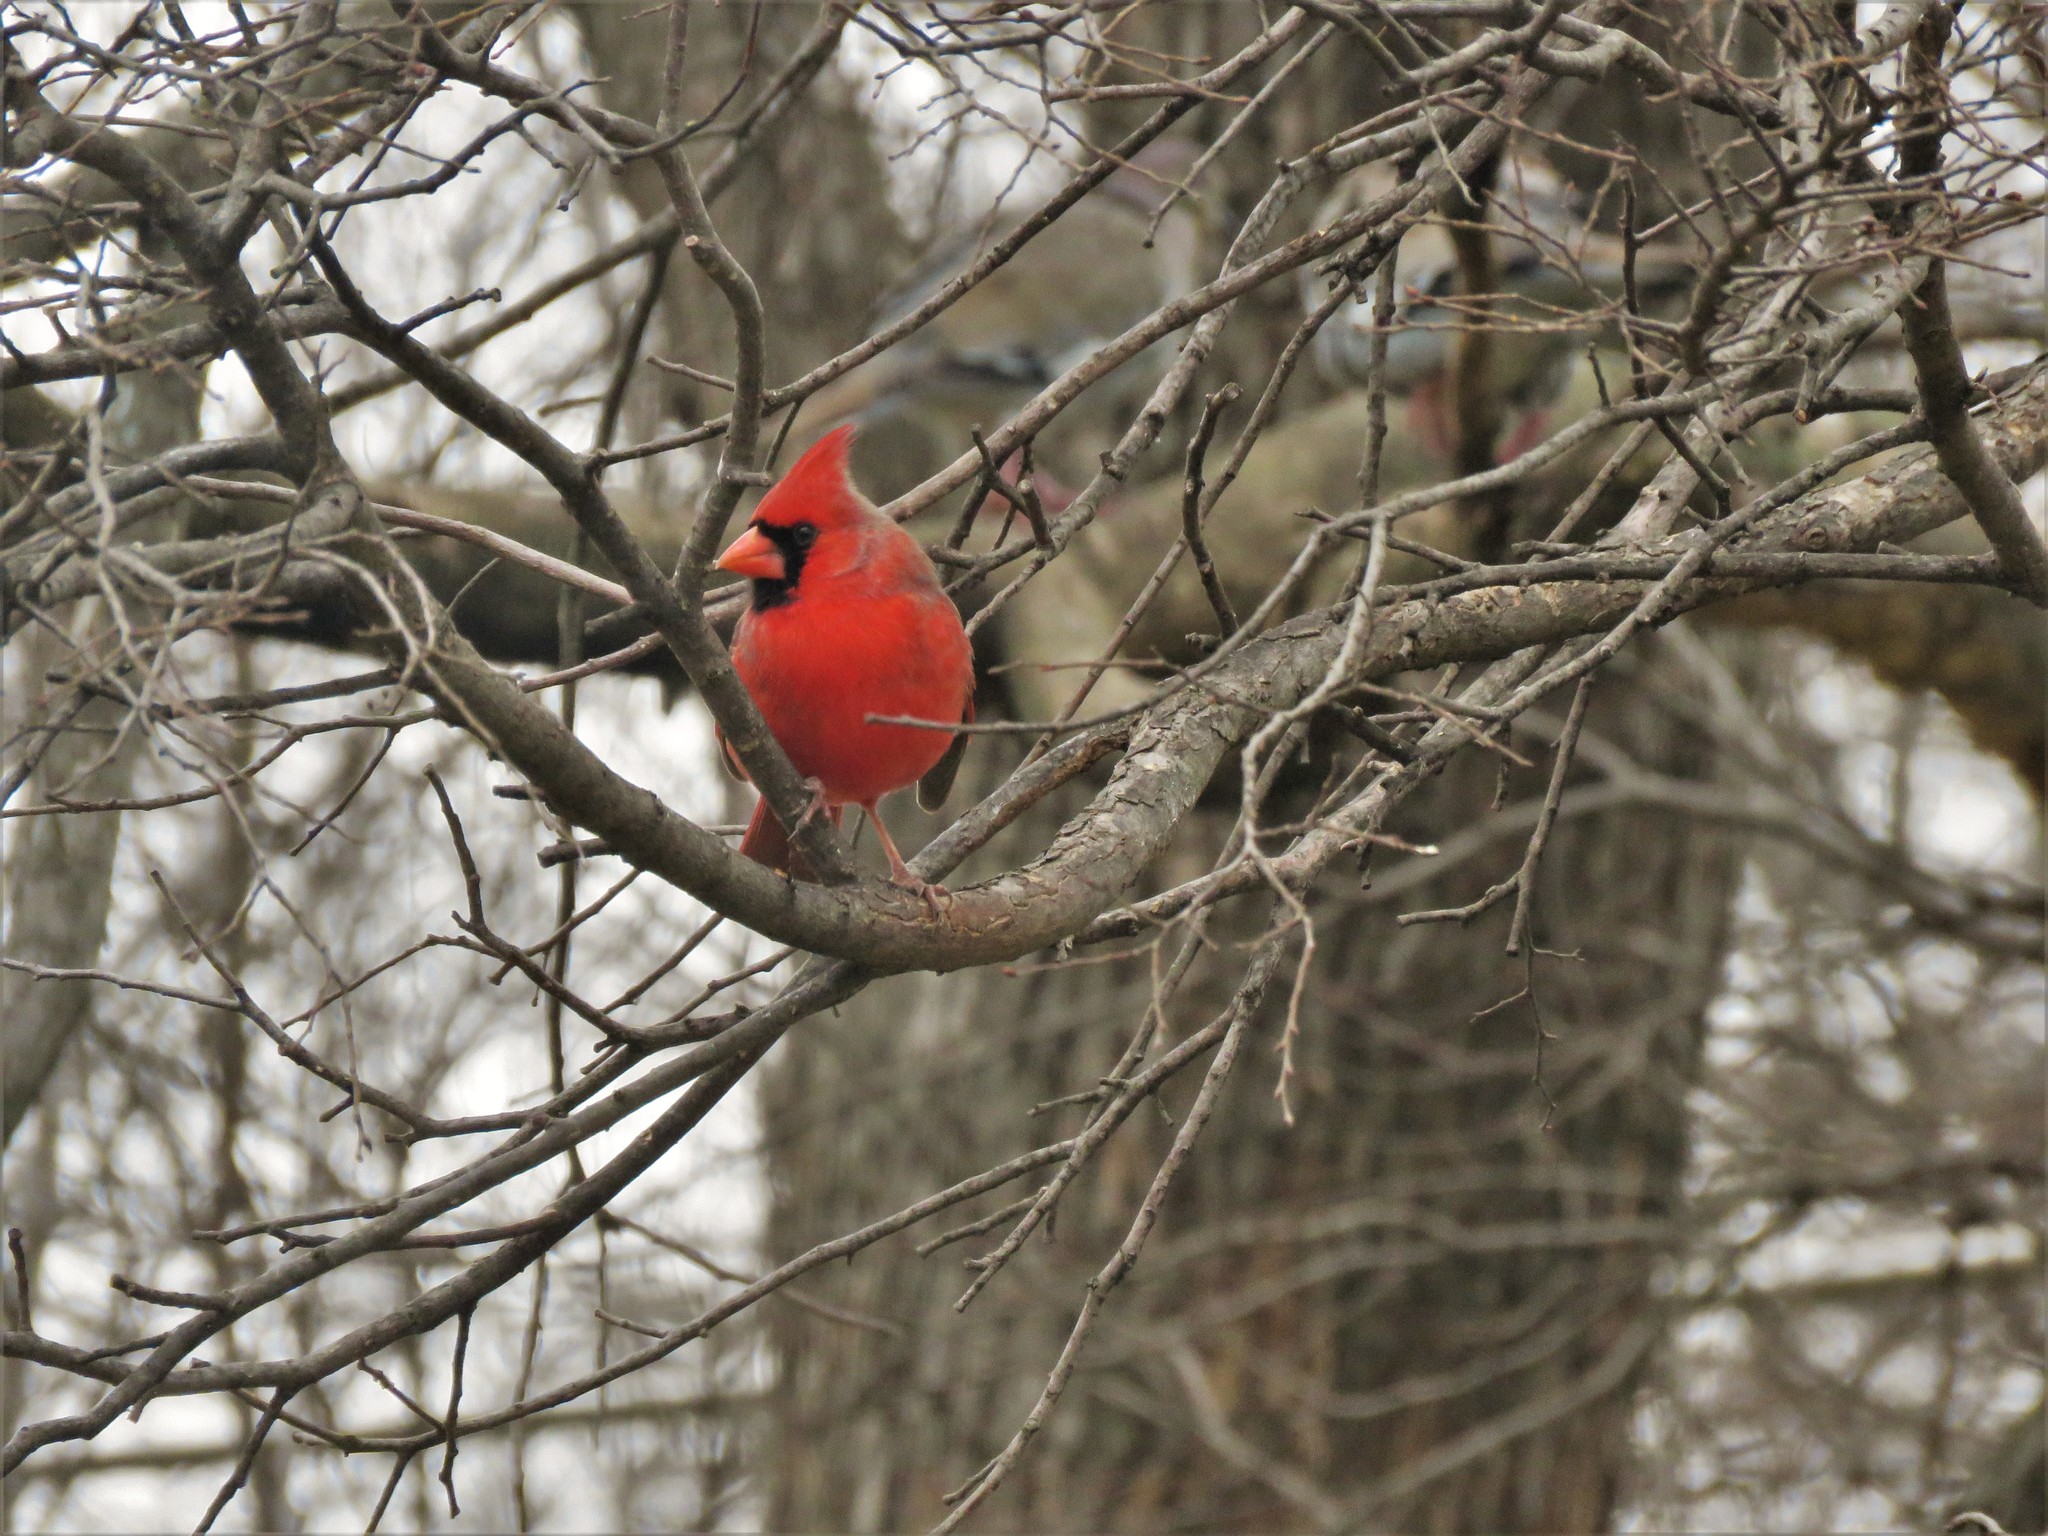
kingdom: Animalia
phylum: Chordata
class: Aves
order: Passeriformes
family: Cardinalidae
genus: Cardinalis
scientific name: Cardinalis cardinalis
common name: Northern cardinal
